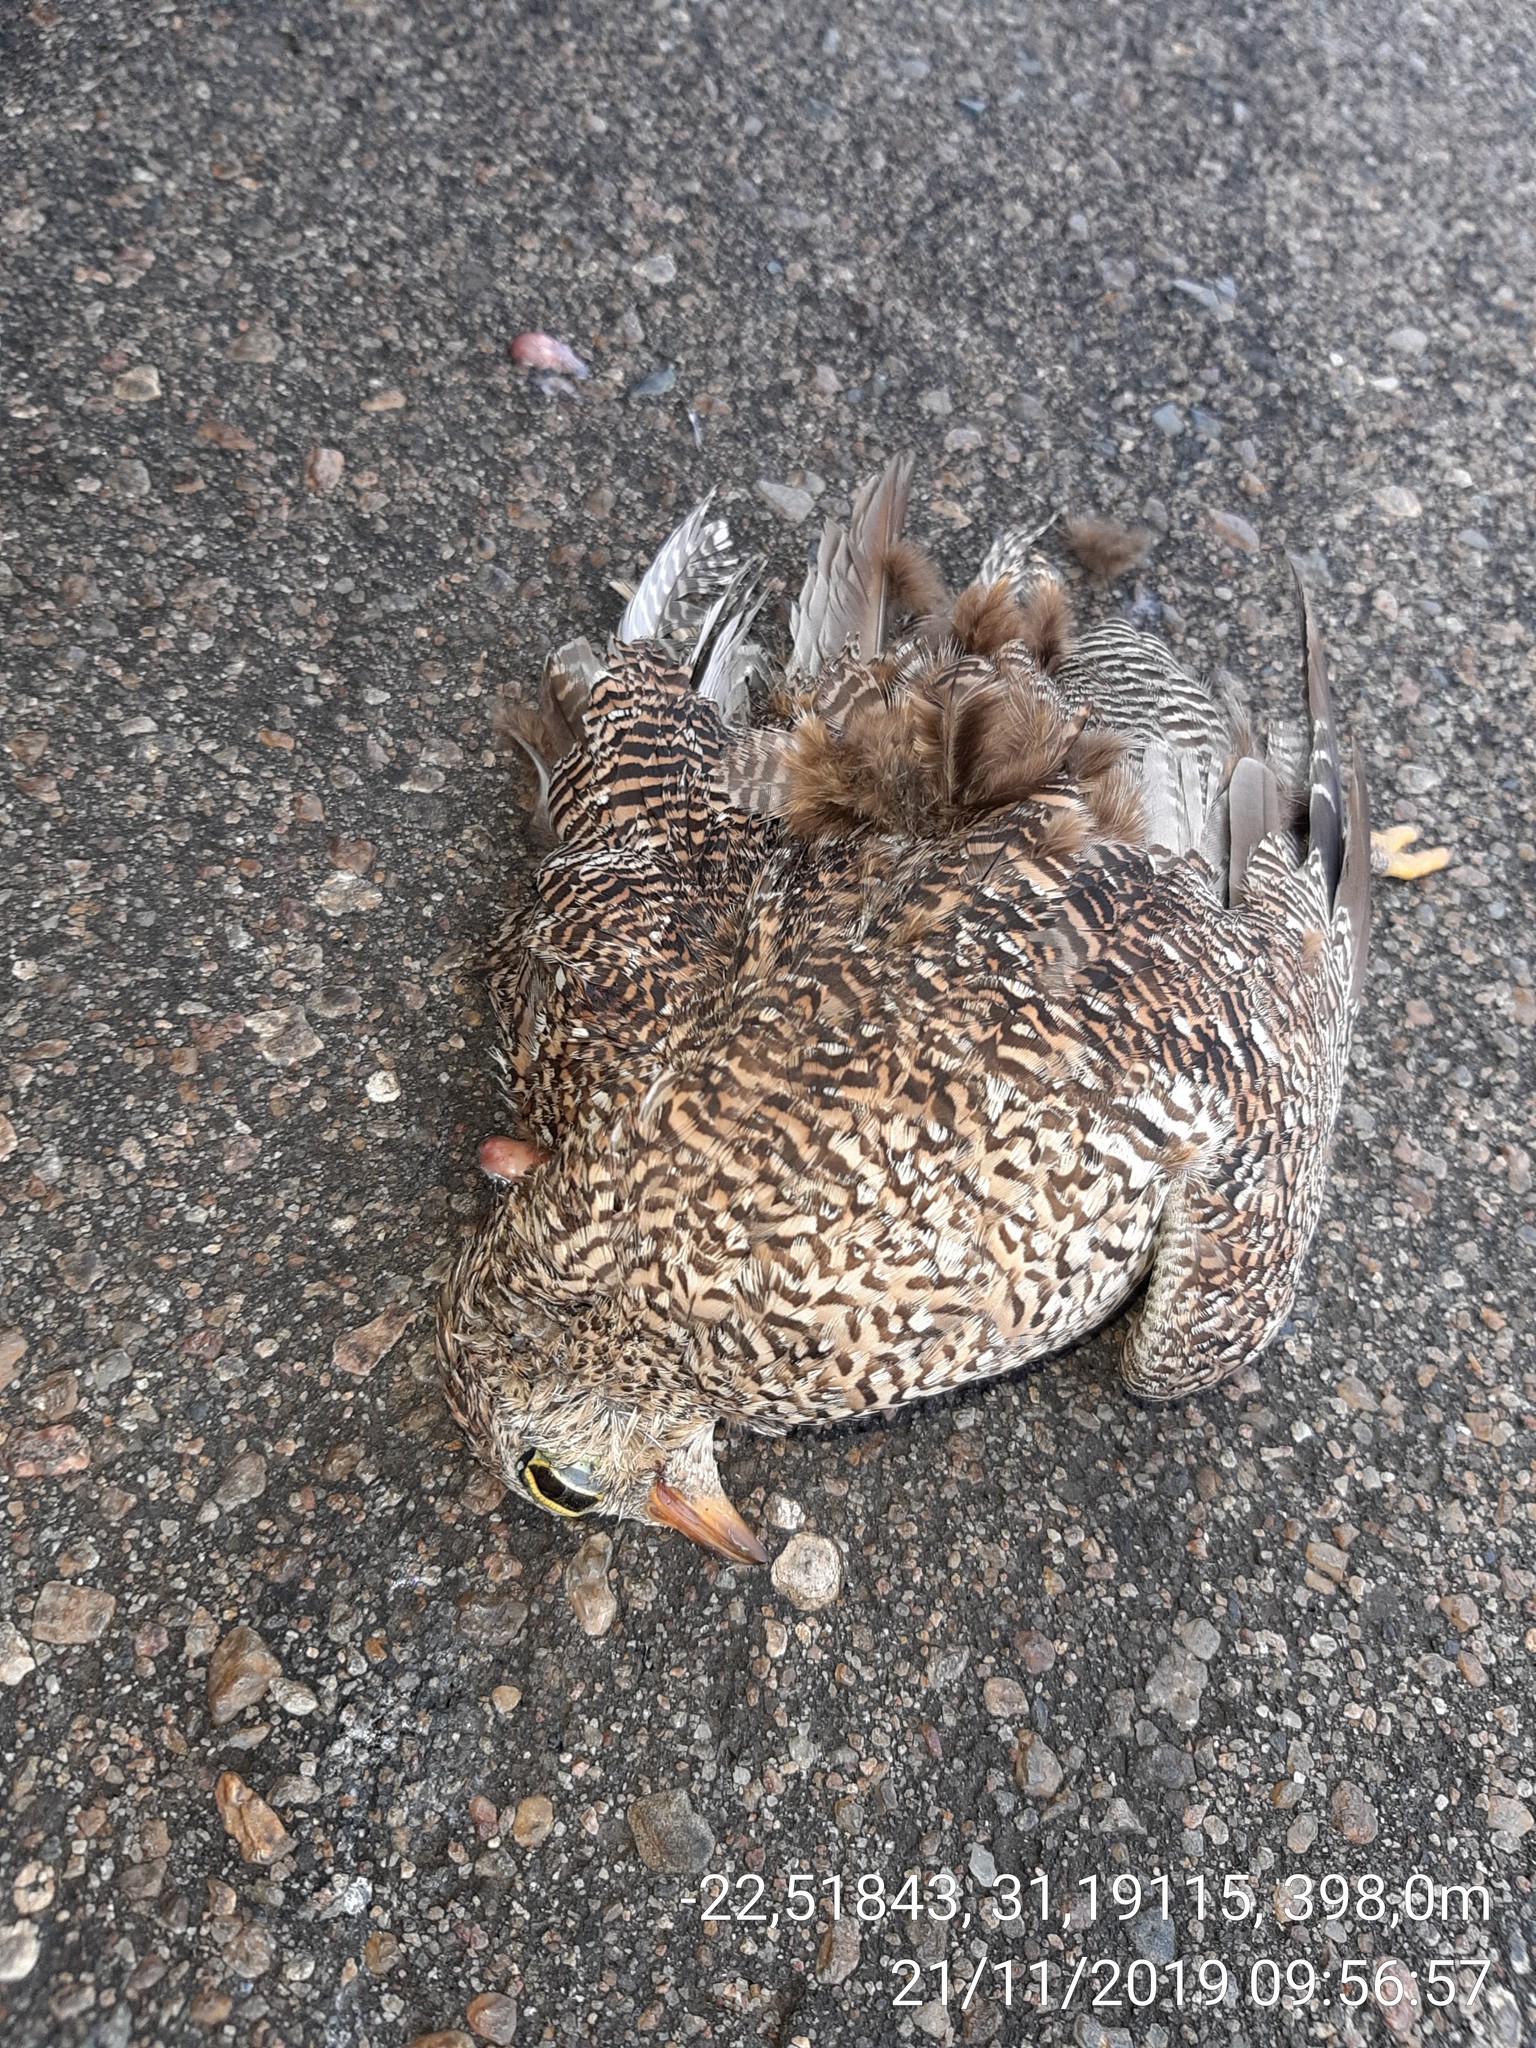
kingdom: Animalia
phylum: Chordata
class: Aves
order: Pteroclidiformes
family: Pteroclididae
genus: Pterocles
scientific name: Pterocles bicinctus
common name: Double-banded sandgrouse
